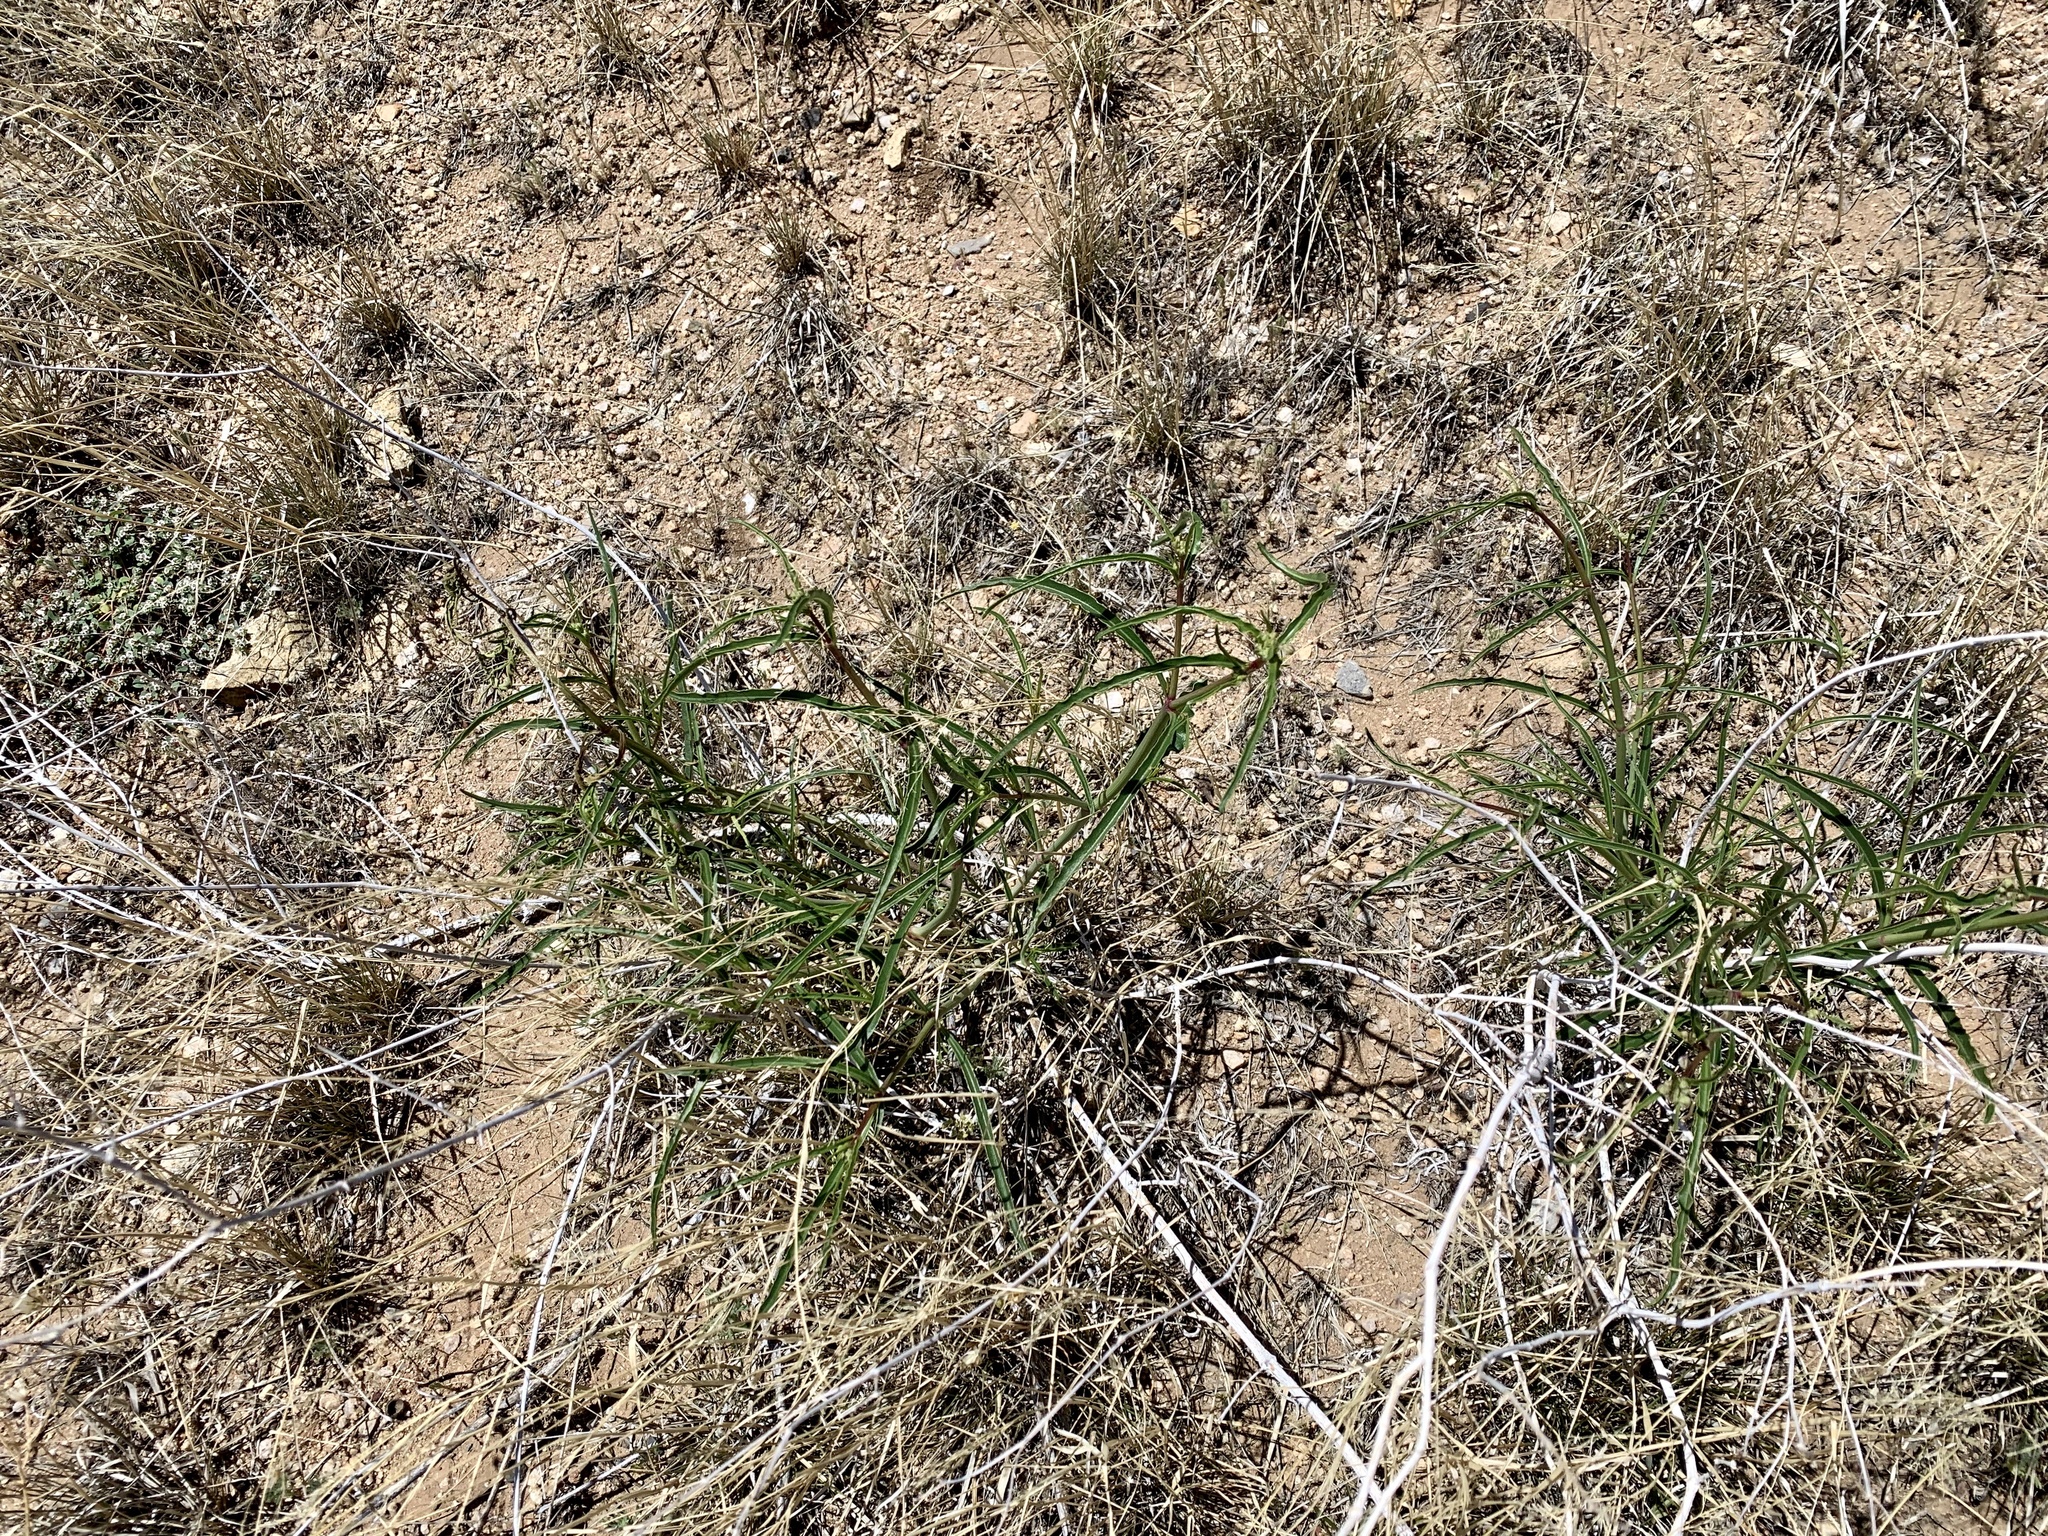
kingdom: Plantae
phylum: Tracheophyta
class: Magnoliopsida
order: Caryophyllales
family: Nyctaginaceae
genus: Mirabilis
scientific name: Mirabilis linearis
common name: Linear-leaved four-o'clock
